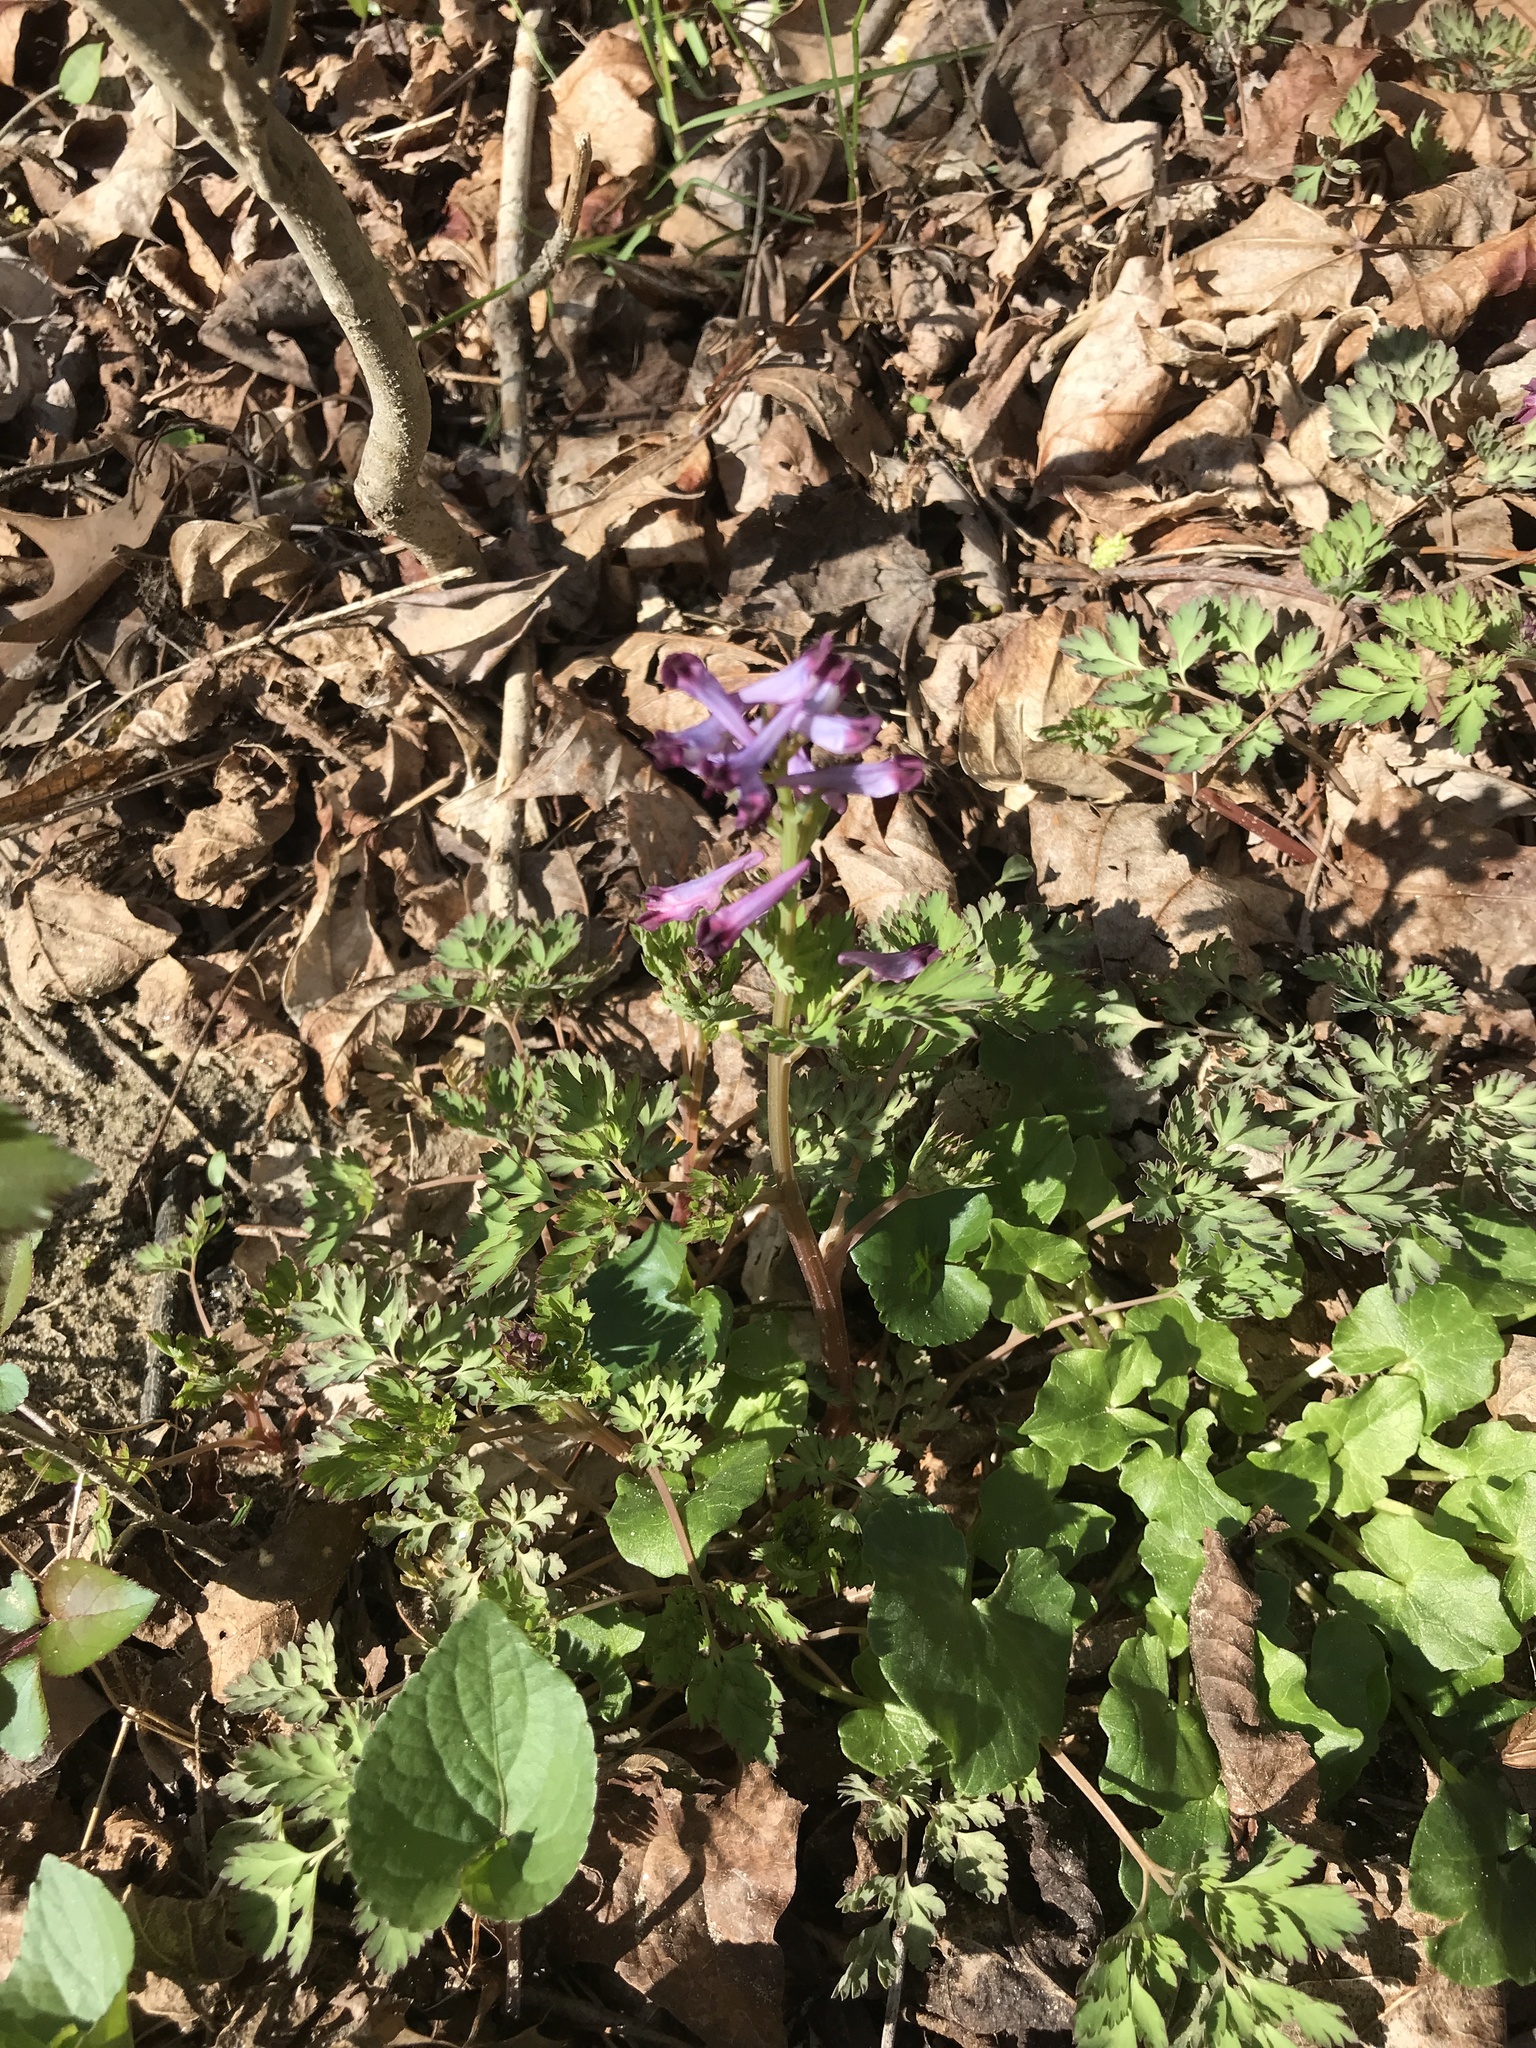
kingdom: Plantae
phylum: Tracheophyta
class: Magnoliopsida
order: Ranunculales
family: Papaveraceae
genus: Corydalis
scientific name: Corydalis incisa
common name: Incised fumewort
